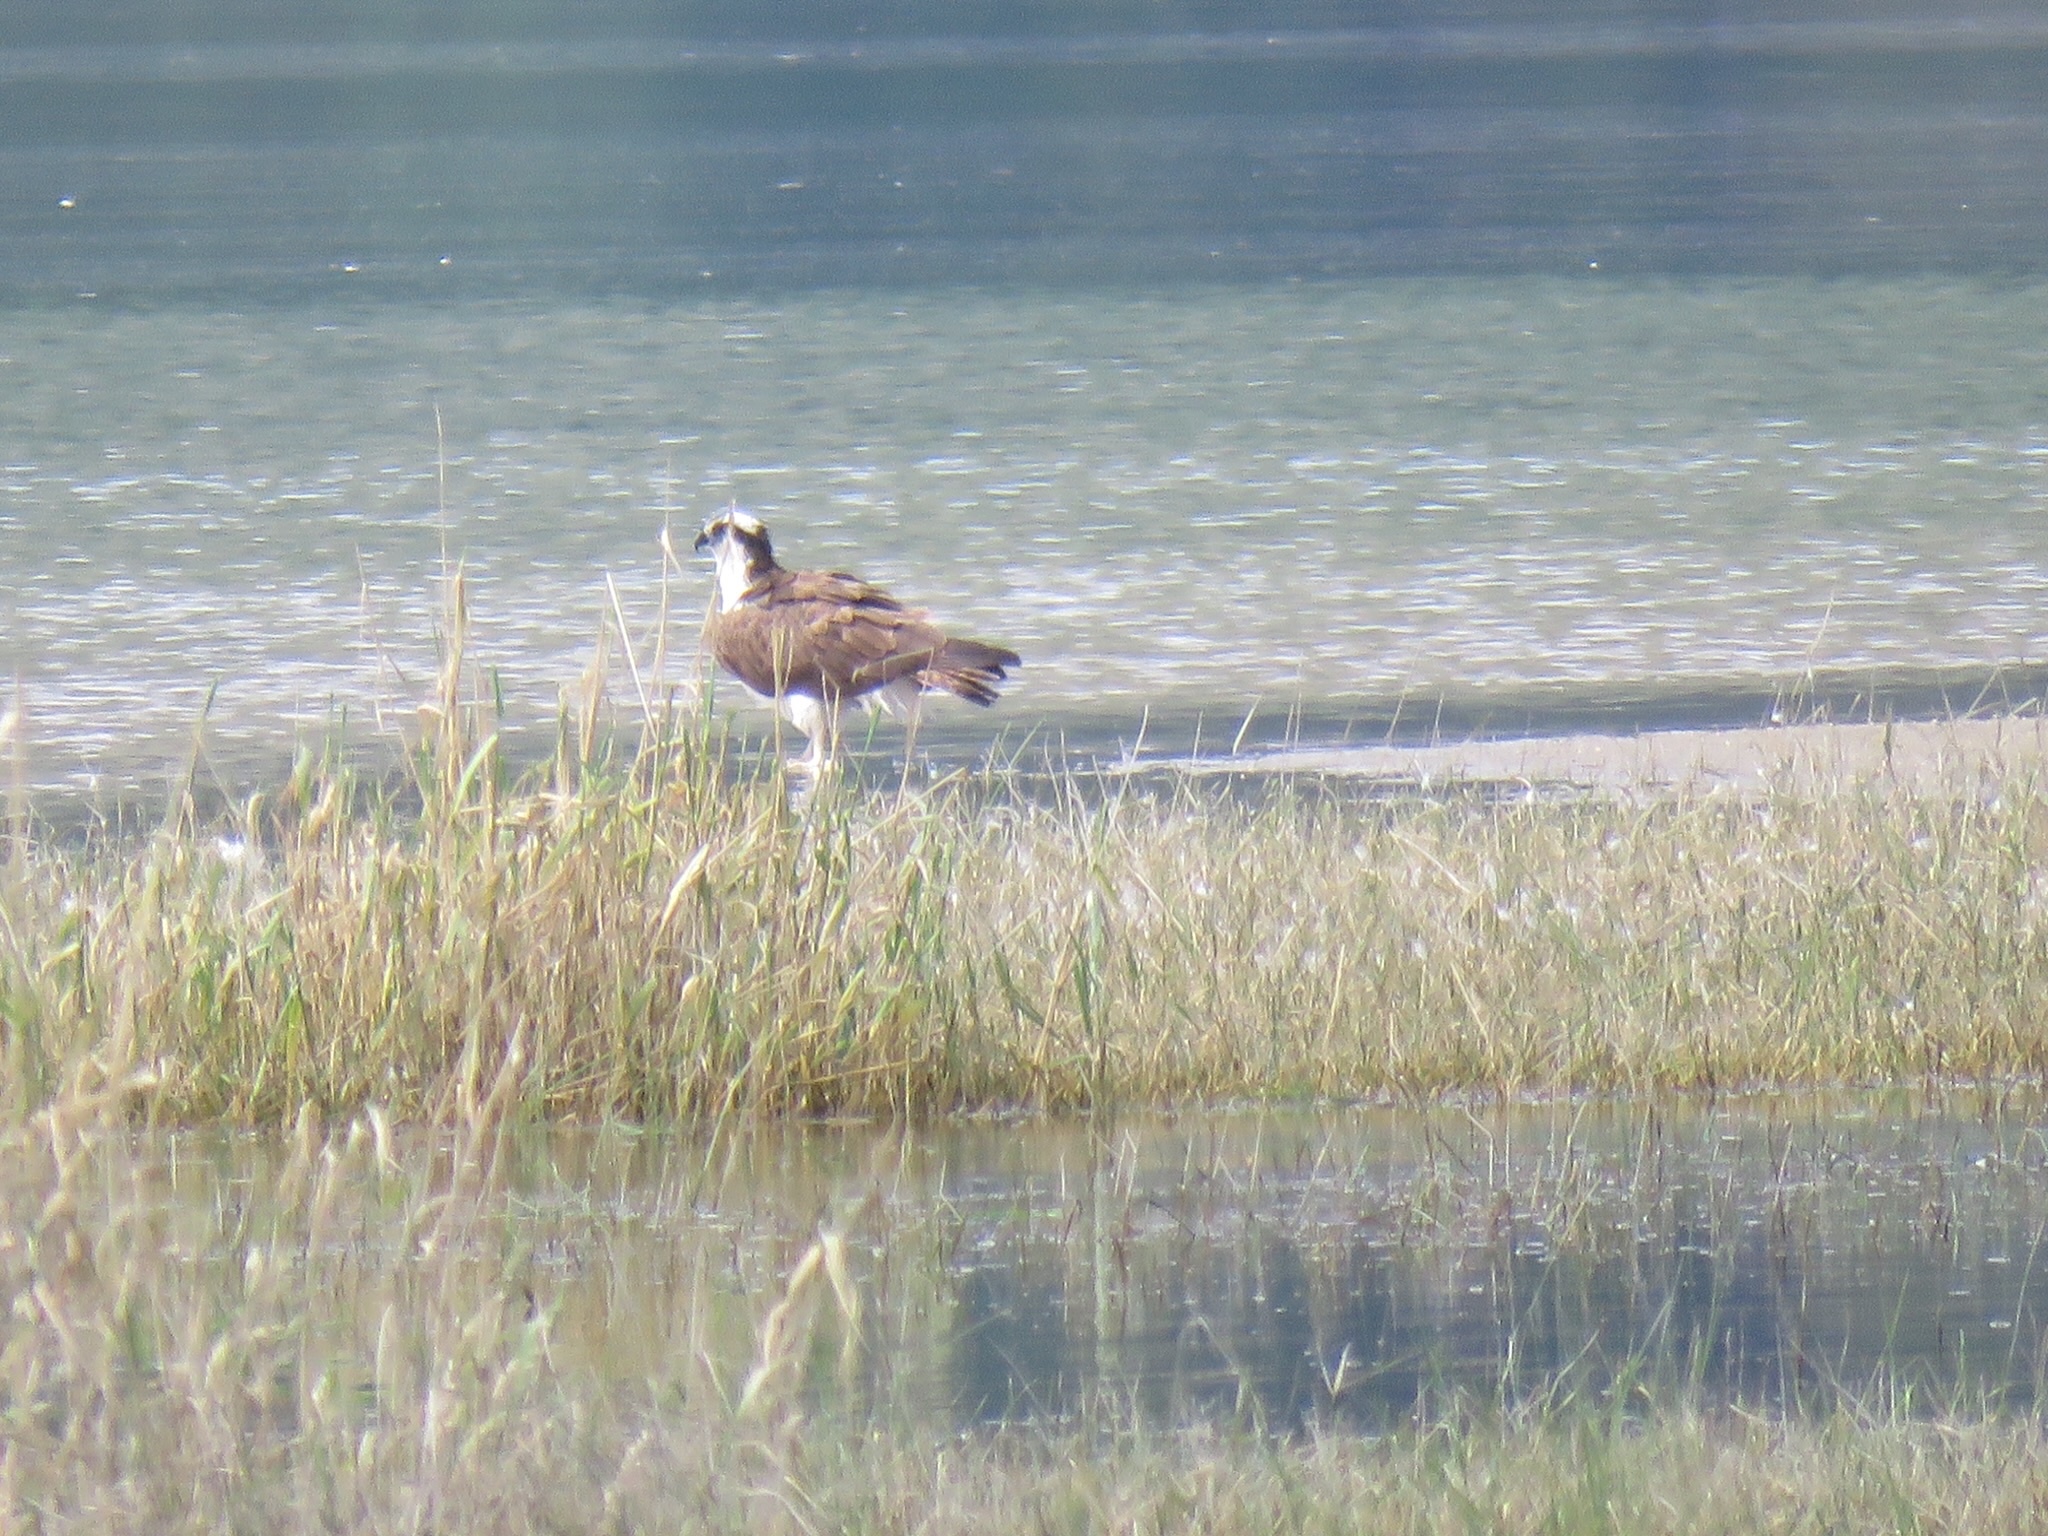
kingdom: Animalia
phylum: Chordata
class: Aves
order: Accipitriformes
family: Pandionidae
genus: Pandion
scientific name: Pandion haliaetus
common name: Osprey
